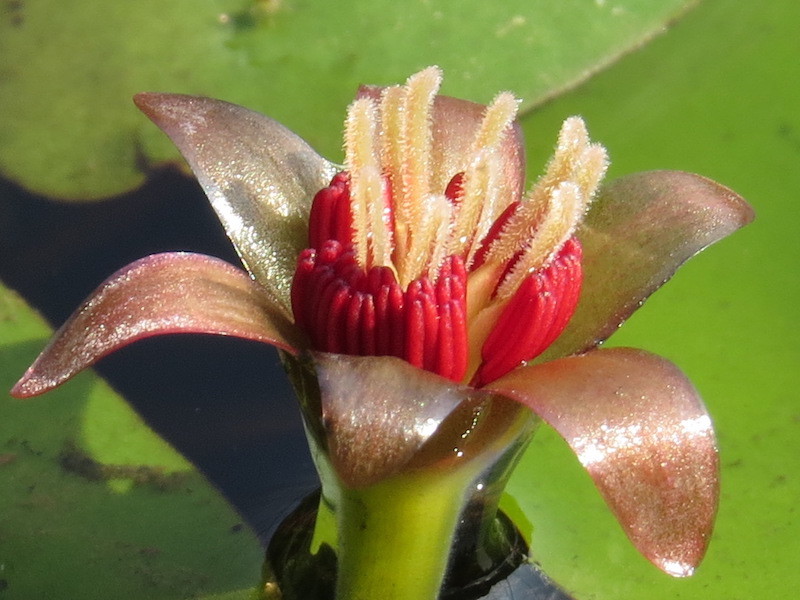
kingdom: Plantae
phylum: Tracheophyta
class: Magnoliopsida
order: Nymphaeales
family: Cabombaceae
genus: Brasenia
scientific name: Brasenia schreberi
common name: Water-shield
